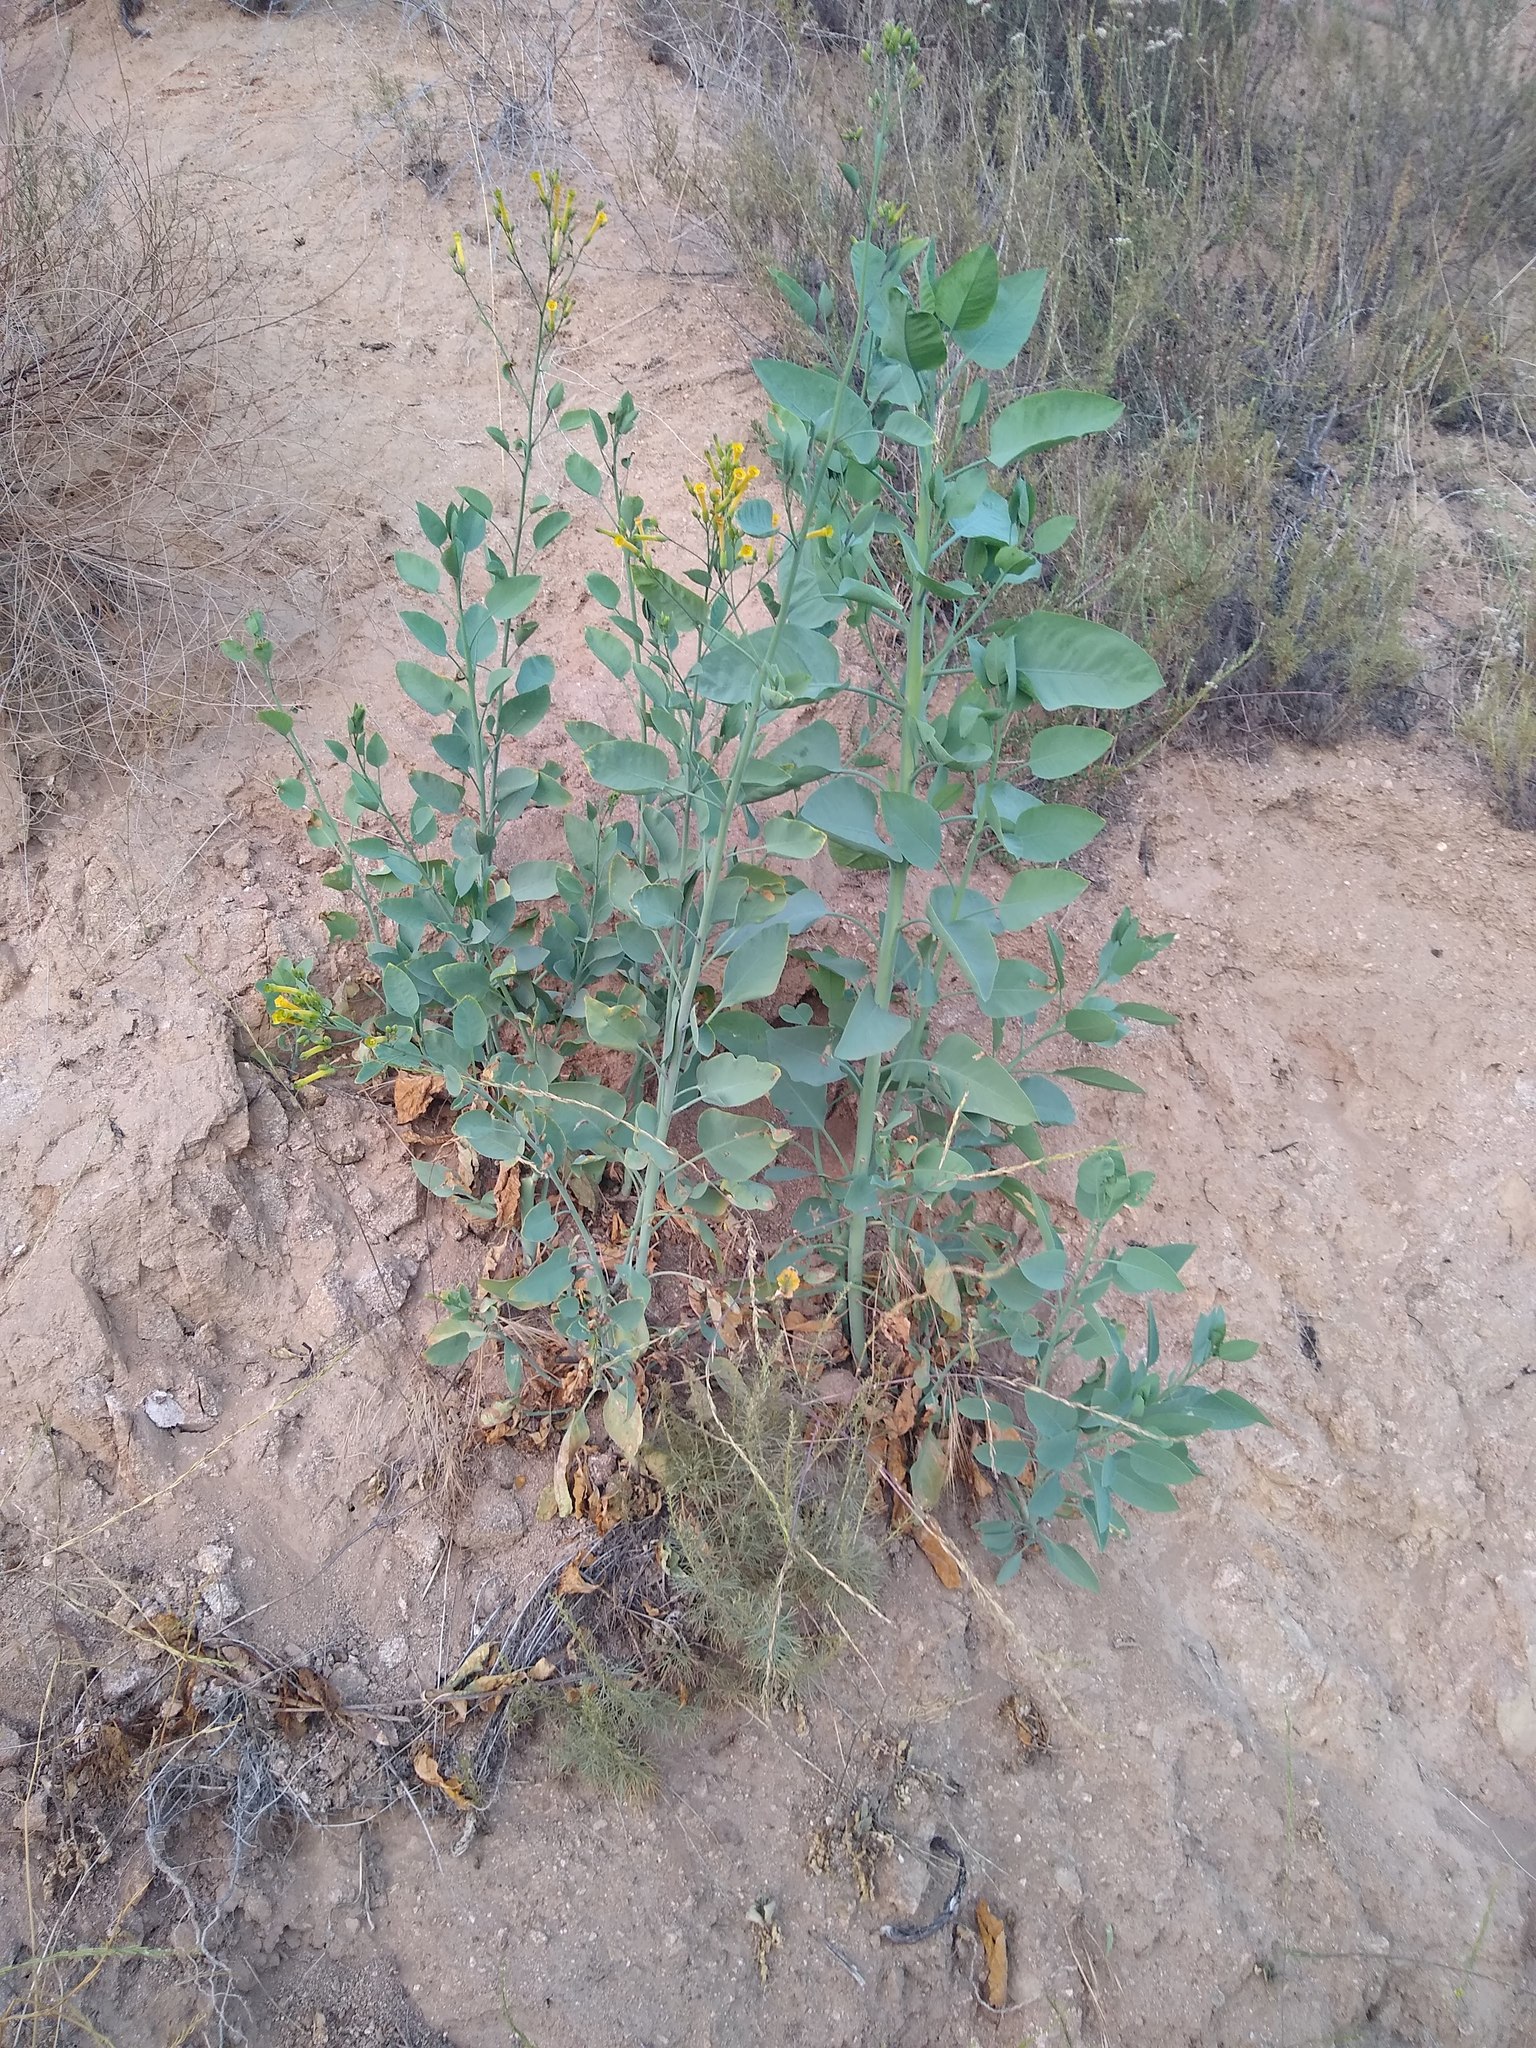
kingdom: Plantae
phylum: Tracheophyta
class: Magnoliopsida
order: Solanales
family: Solanaceae
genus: Nicotiana
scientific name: Nicotiana glauca
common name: Tree tobacco
